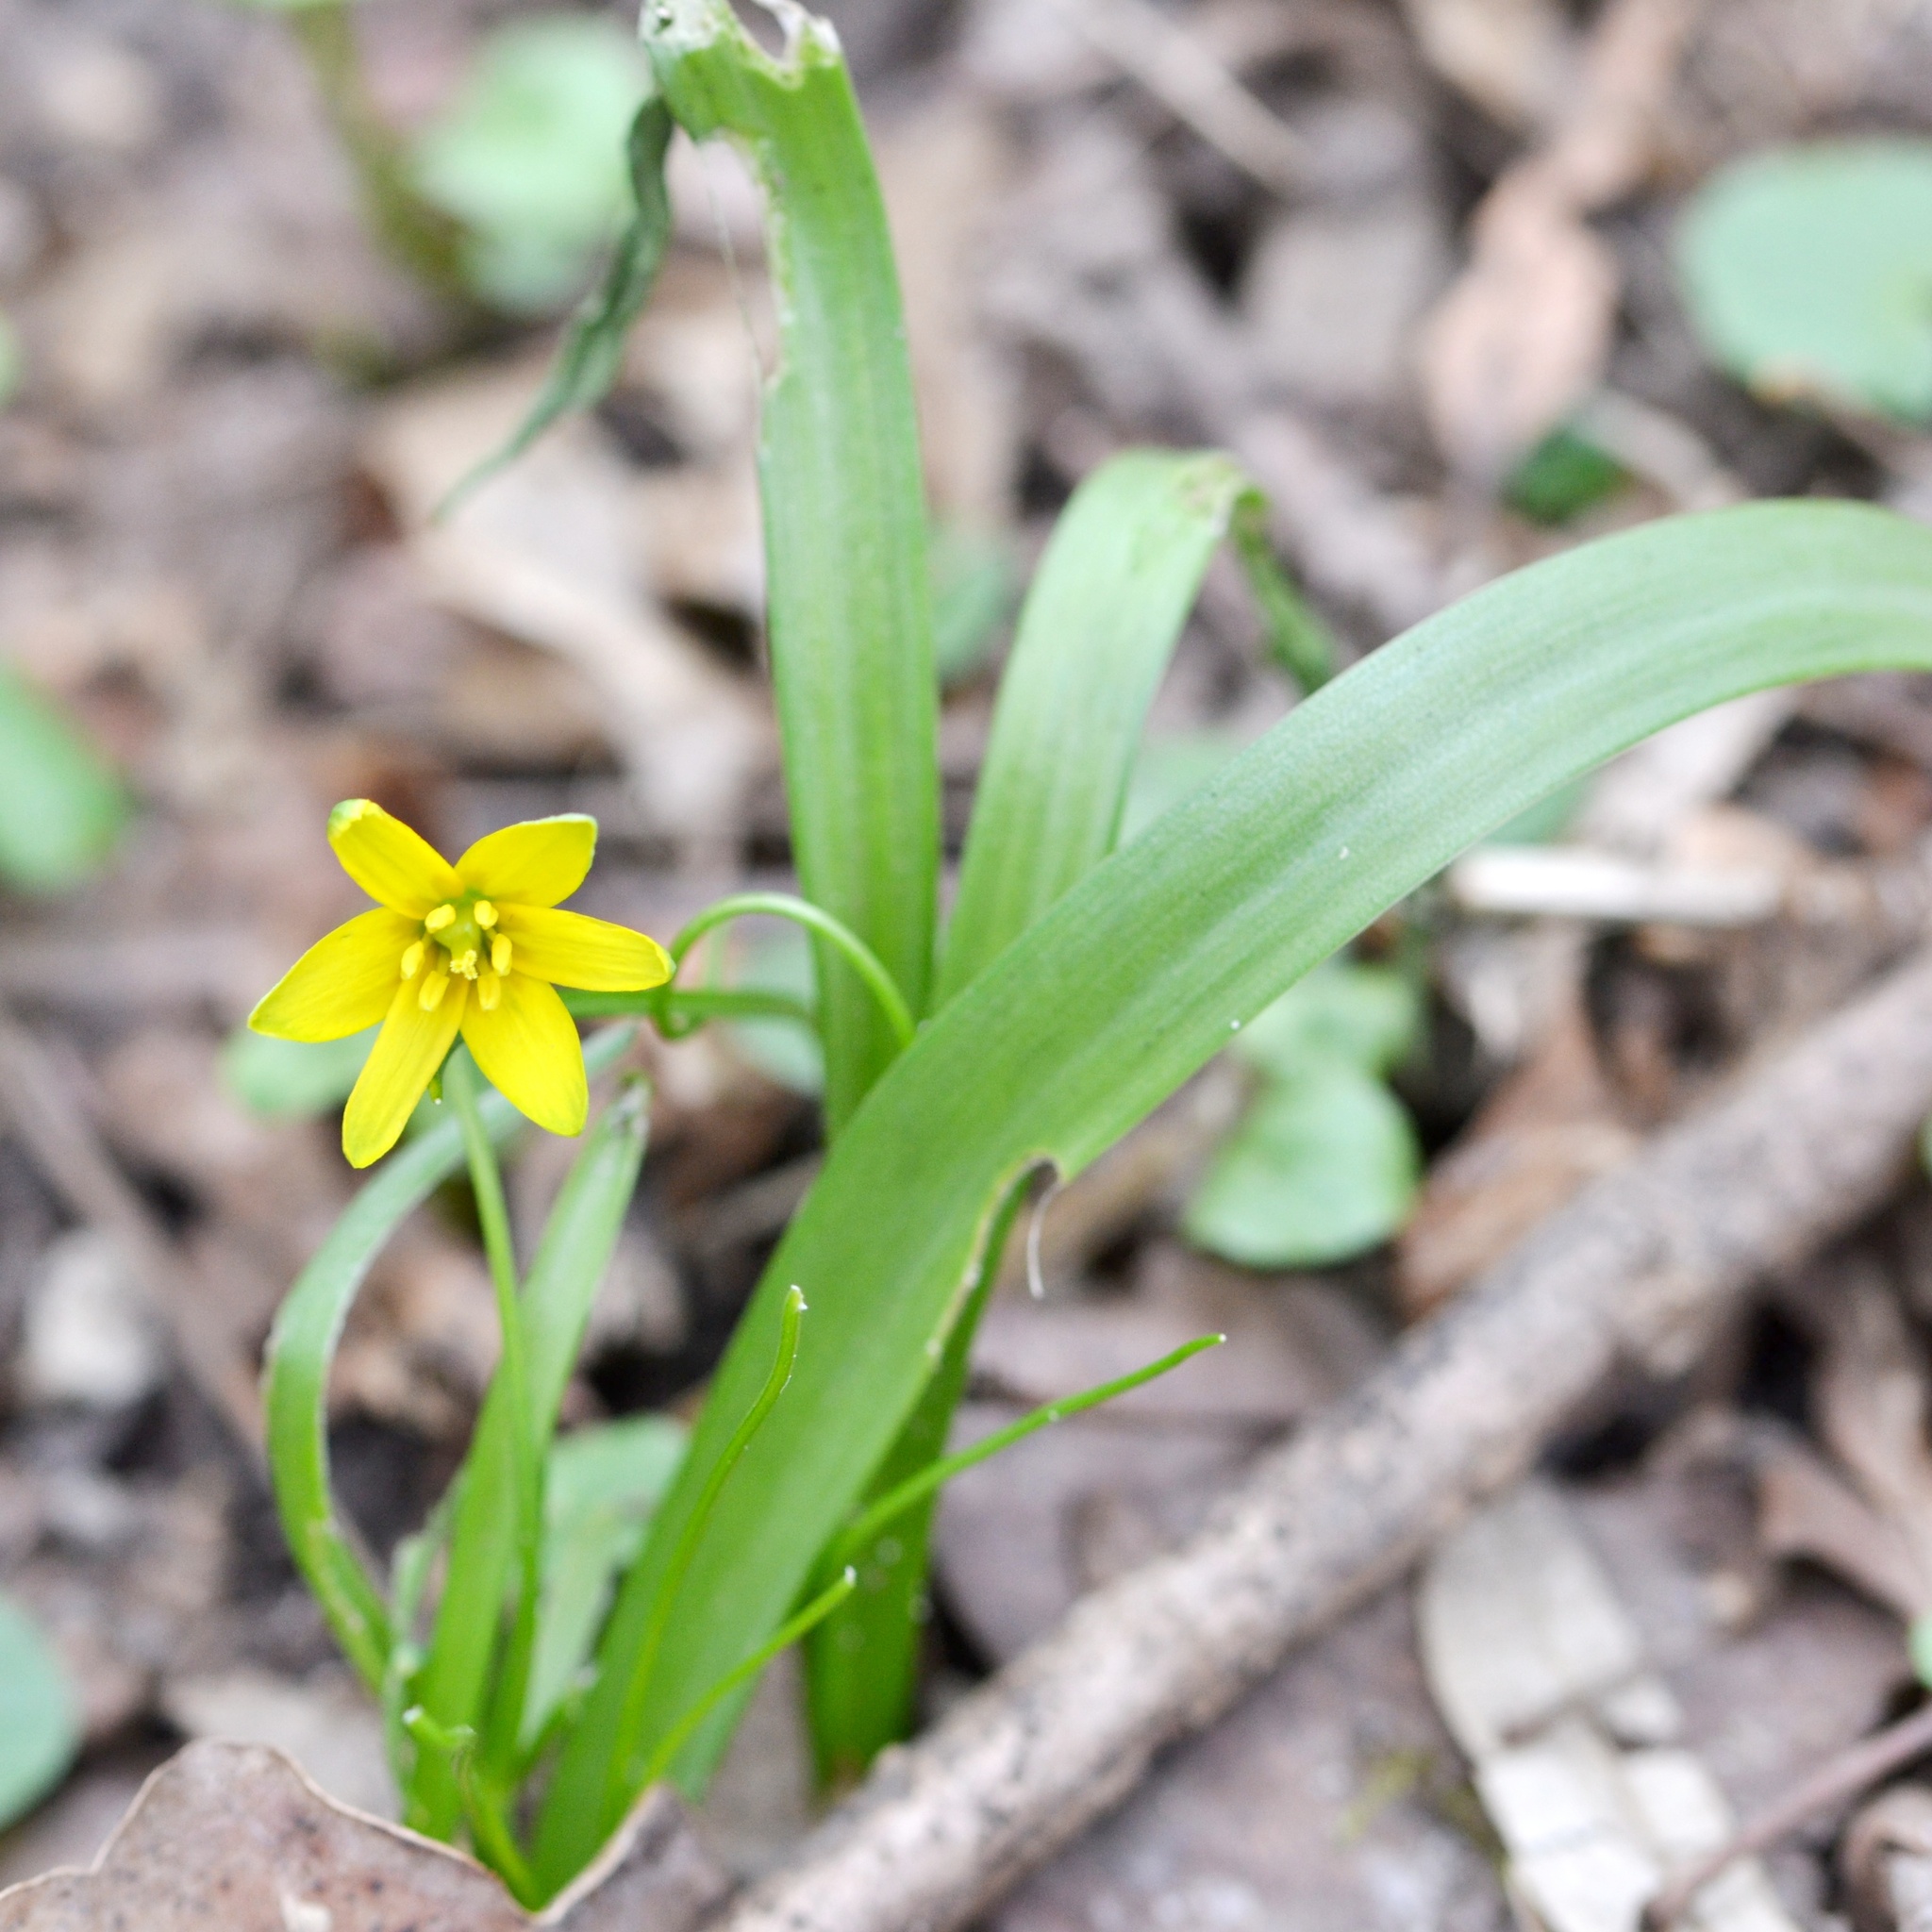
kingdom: Plantae
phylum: Tracheophyta
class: Liliopsida
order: Liliales
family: Liliaceae
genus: Gagea
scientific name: Gagea lutea
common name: Yellow star-of-bethlehem
